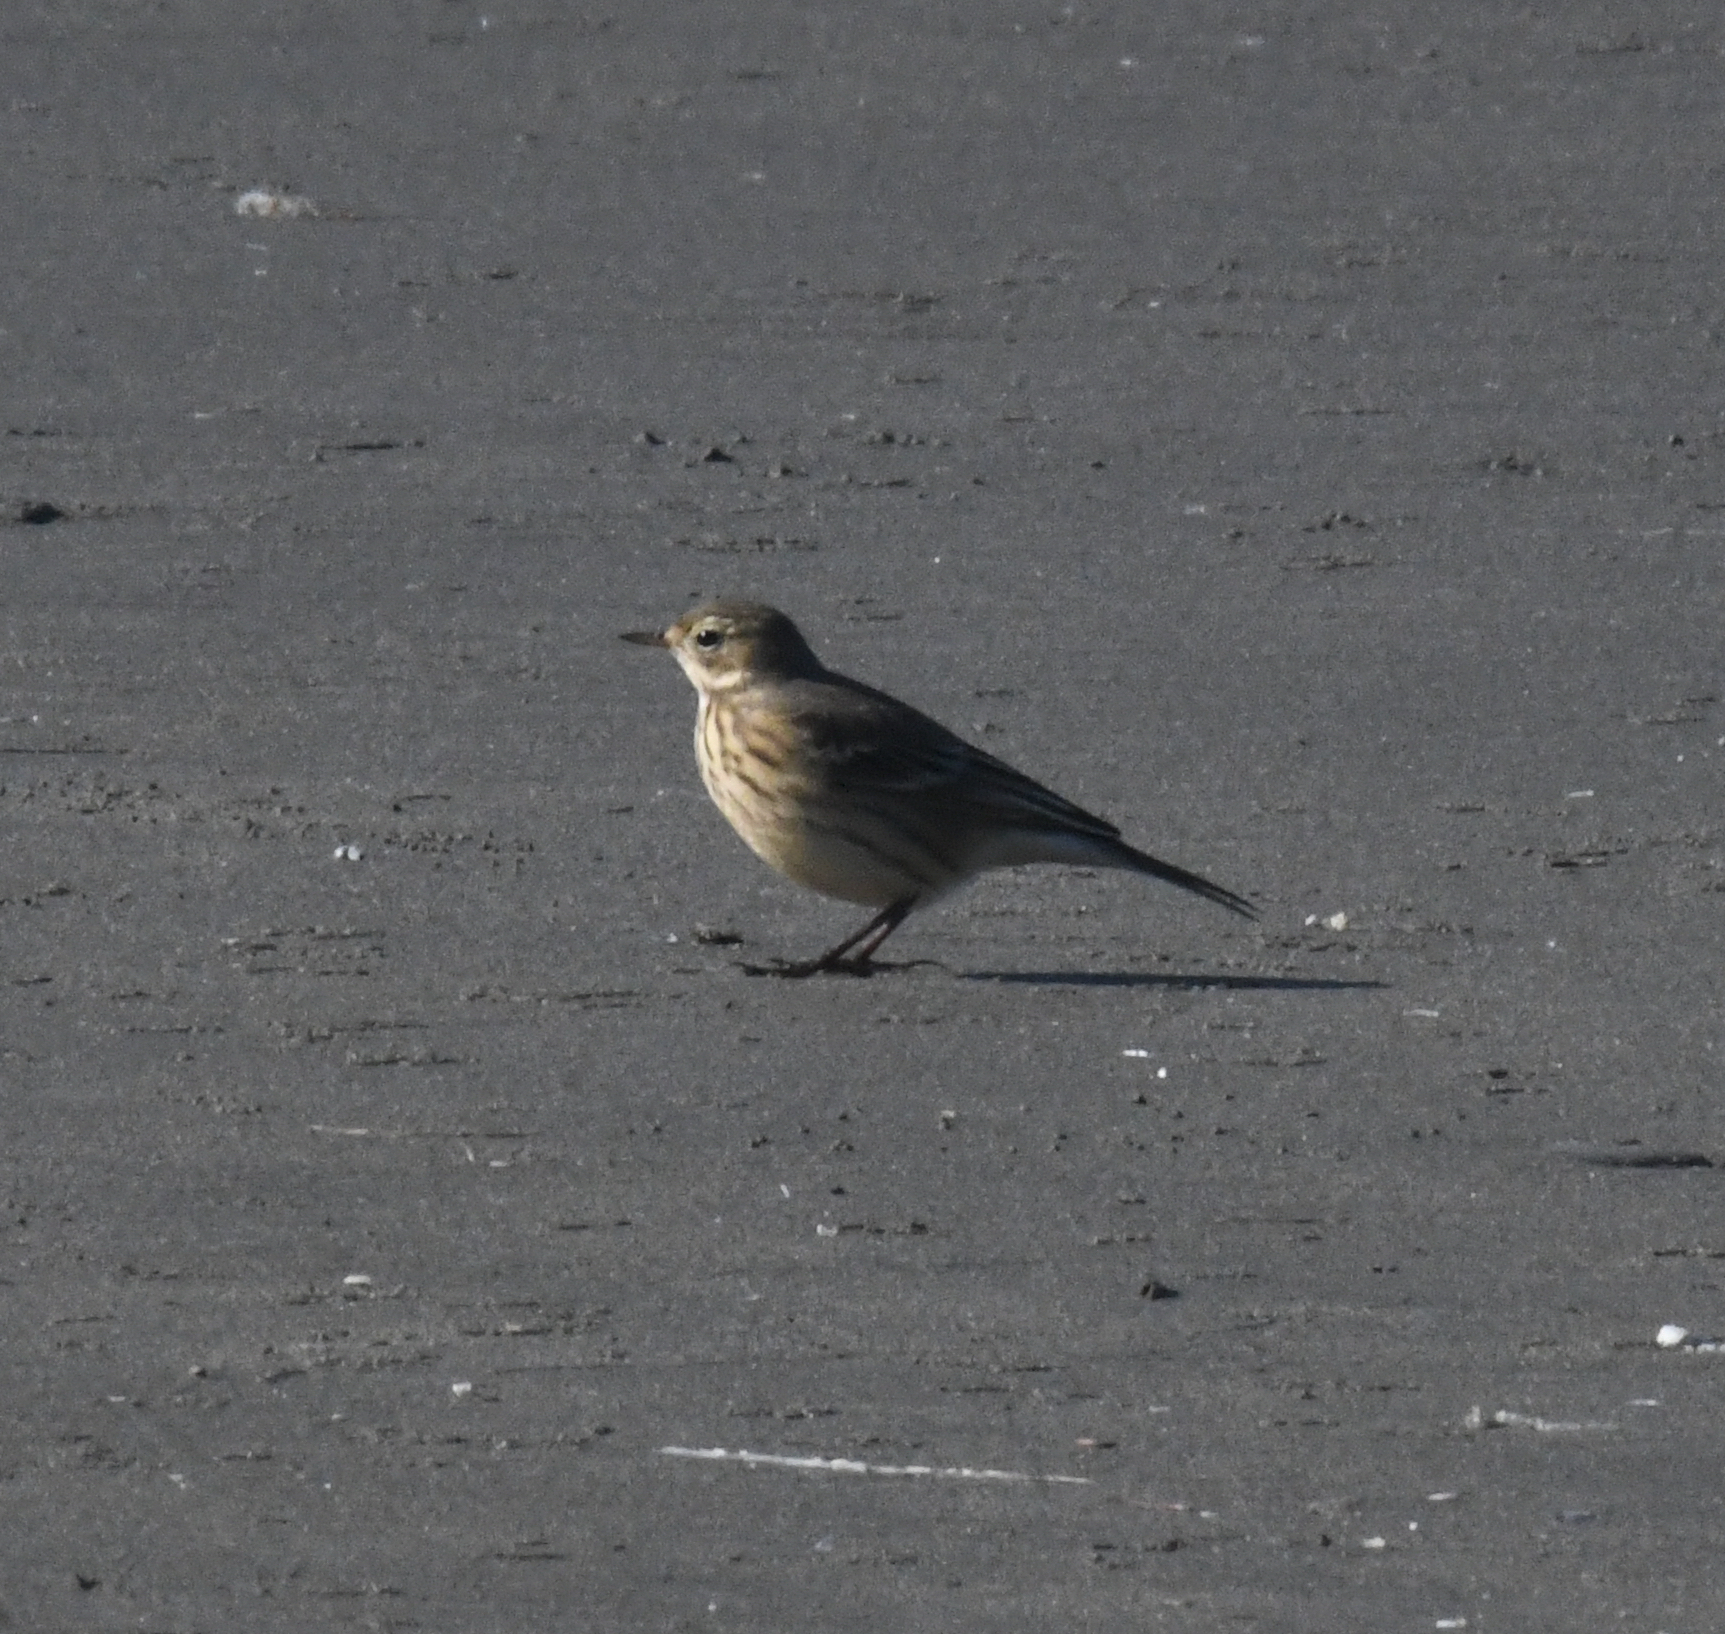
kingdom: Animalia
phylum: Chordata
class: Aves
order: Passeriformes
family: Motacillidae
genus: Anthus
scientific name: Anthus rubescens
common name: Buff-bellied pipit
